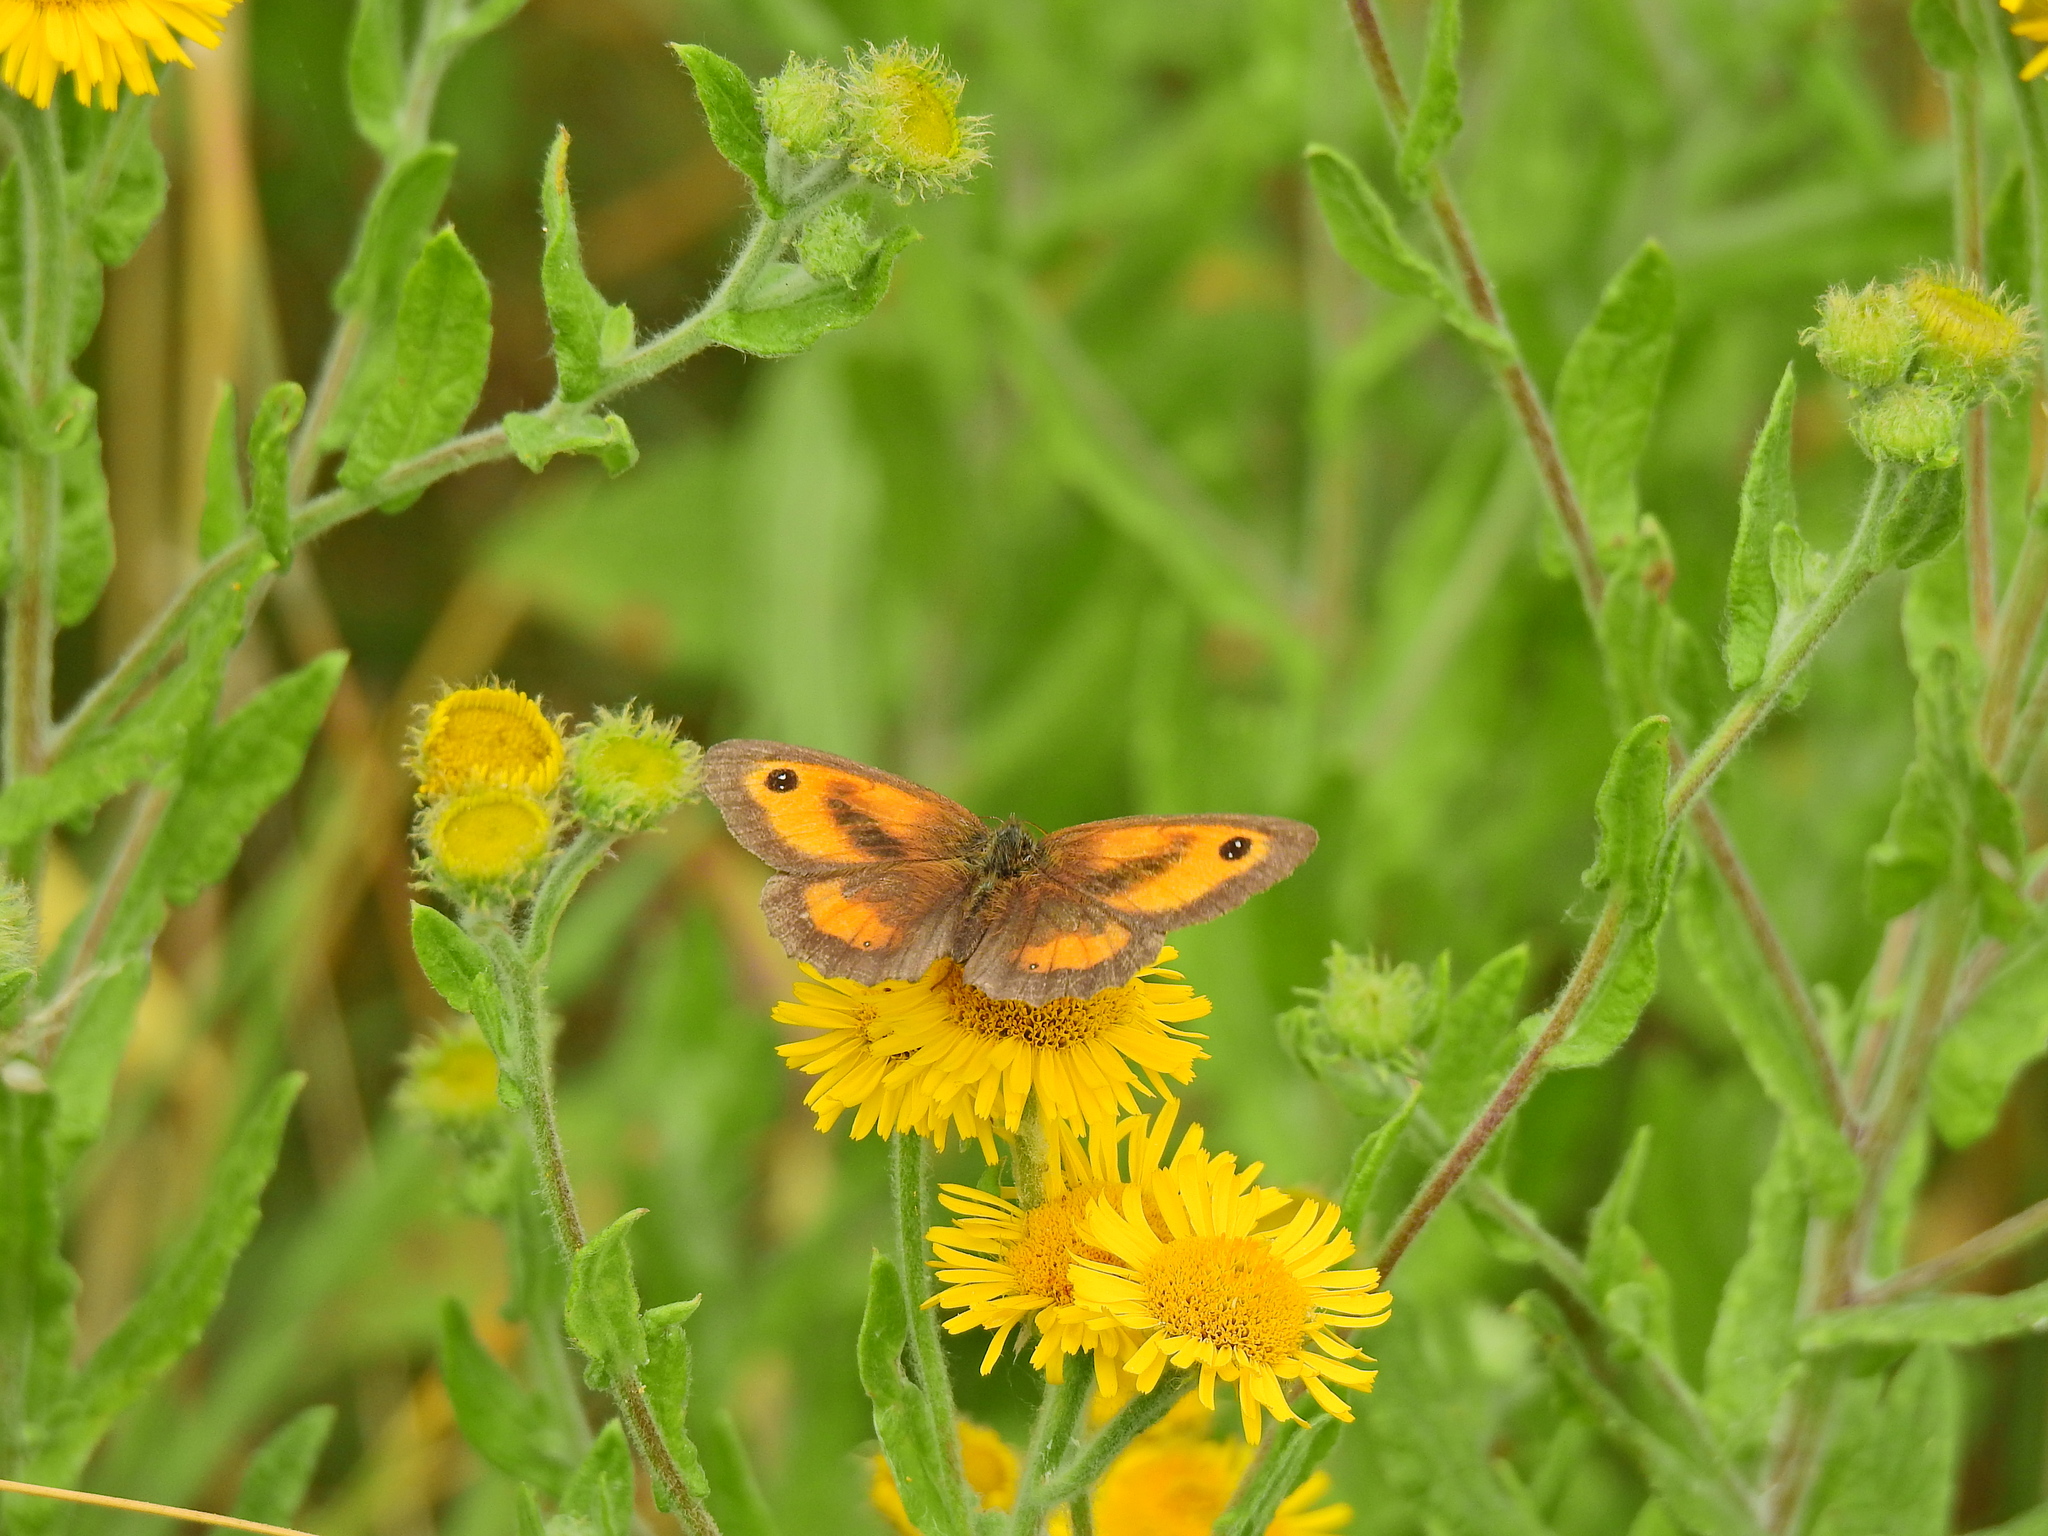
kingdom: Animalia
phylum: Arthropoda
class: Insecta
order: Lepidoptera
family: Nymphalidae
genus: Pyronia
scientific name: Pyronia tithonus
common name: Gatekeeper
